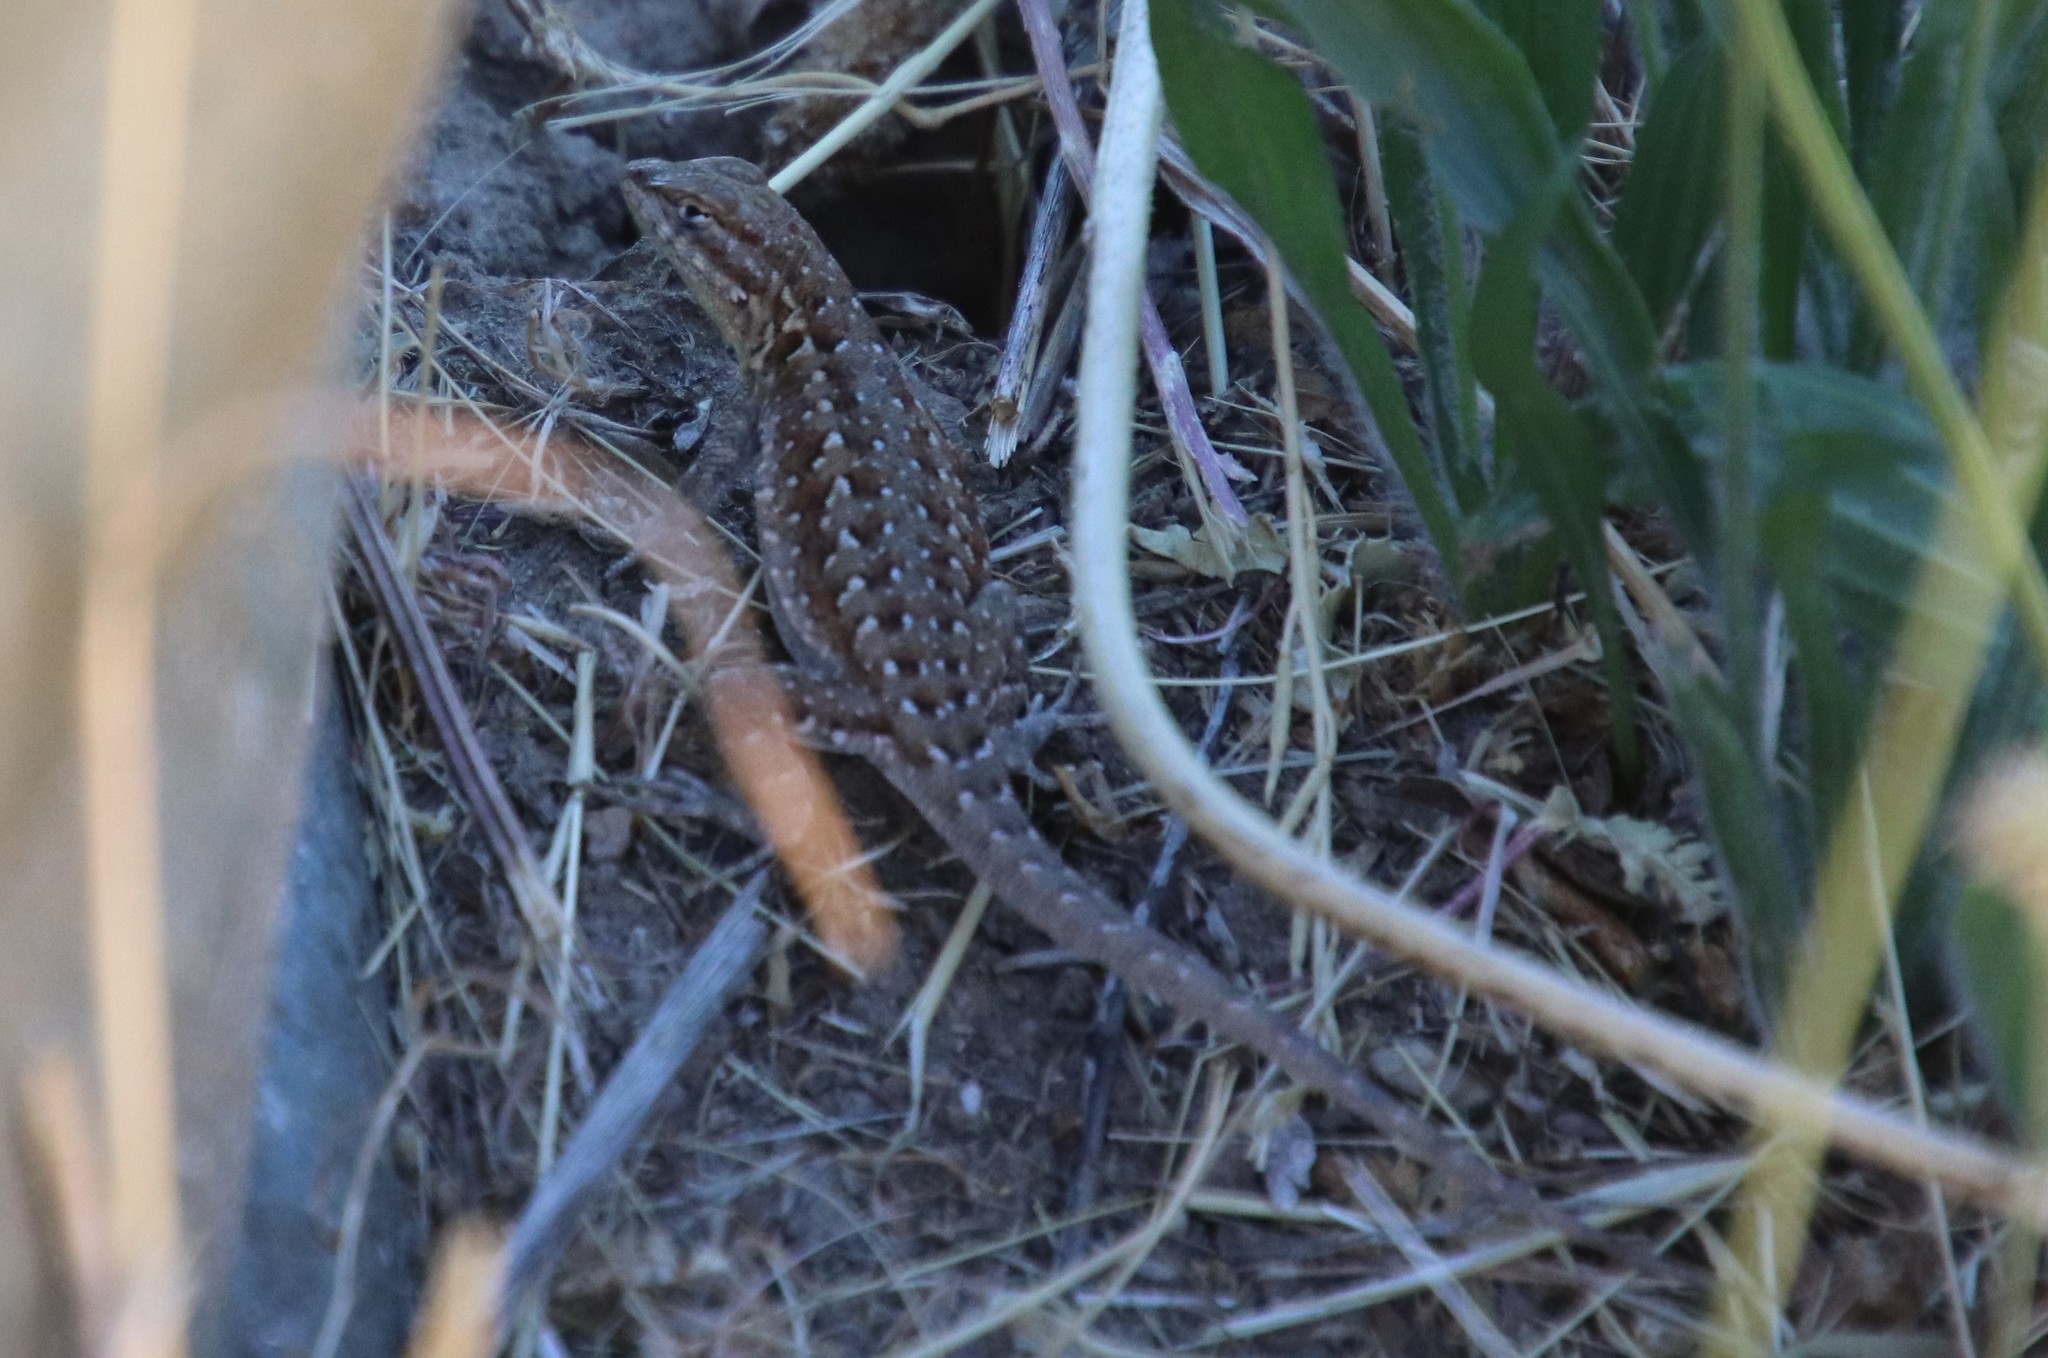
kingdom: Animalia
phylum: Chordata
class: Squamata
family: Phrynosomatidae
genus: Uta
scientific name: Uta stansburiana
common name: Side-blotched lizard
